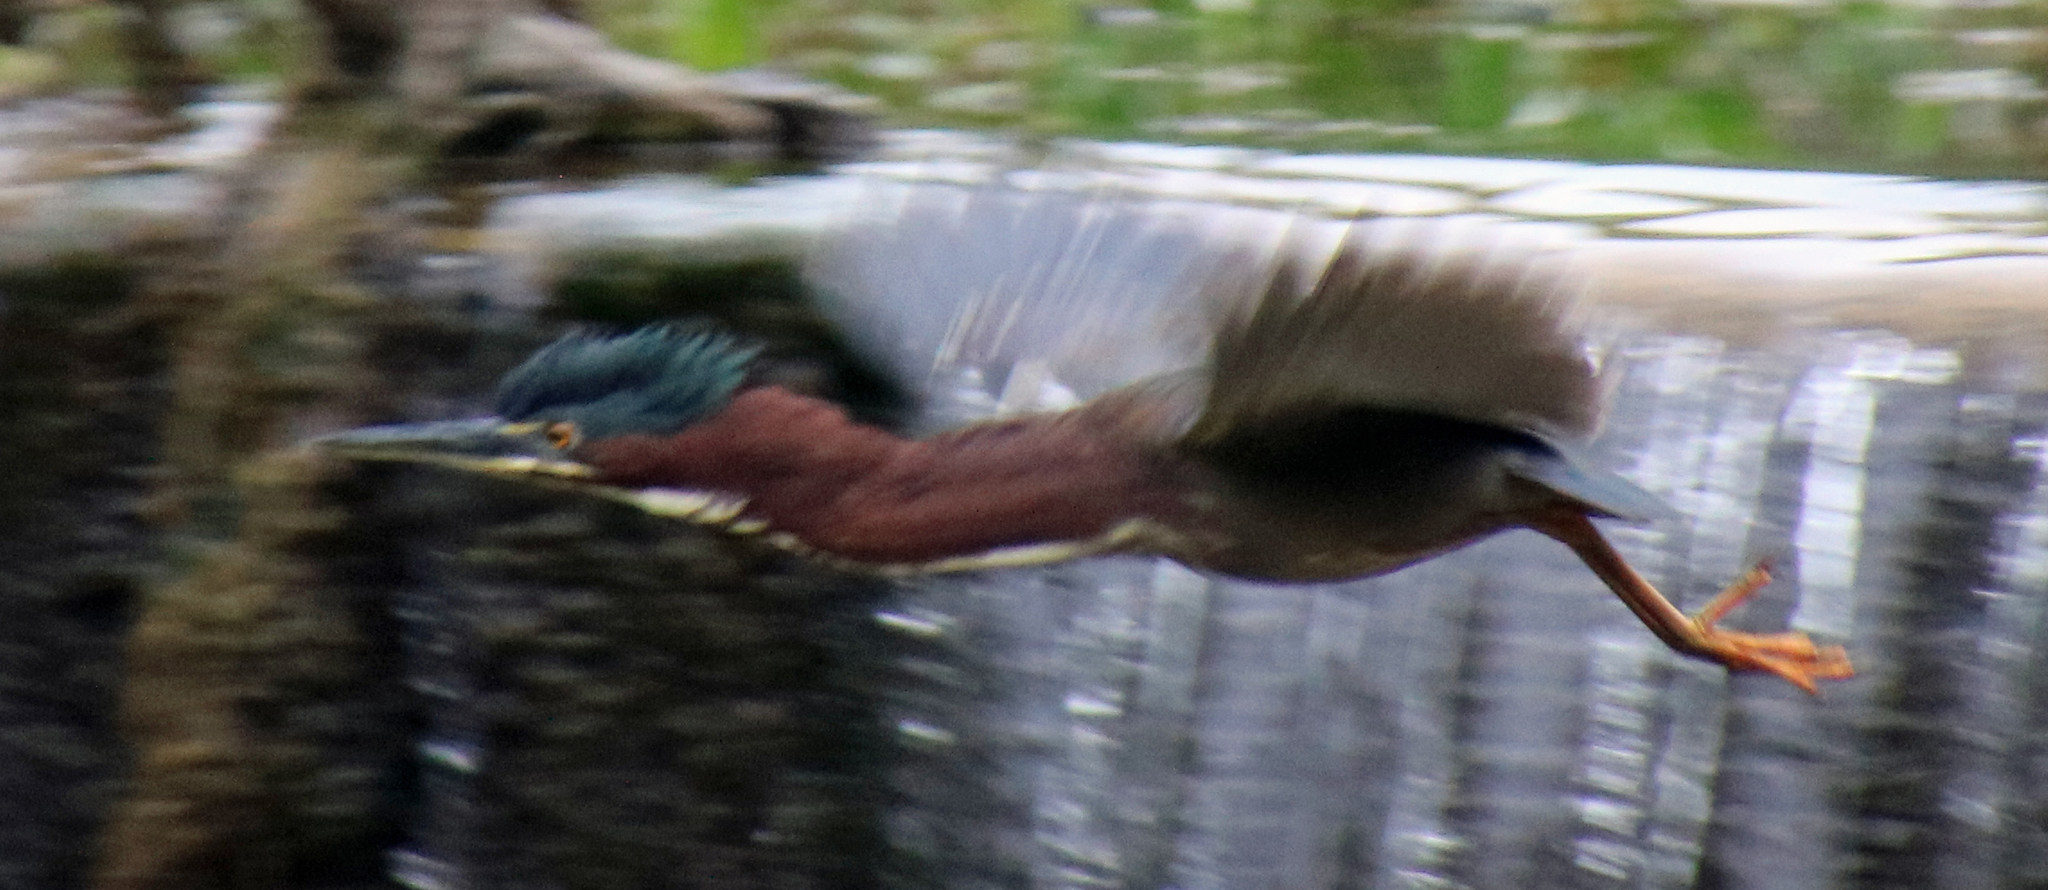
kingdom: Animalia
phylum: Chordata
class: Aves
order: Pelecaniformes
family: Ardeidae
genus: Butorides
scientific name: Butorides virescens
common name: Green heron
